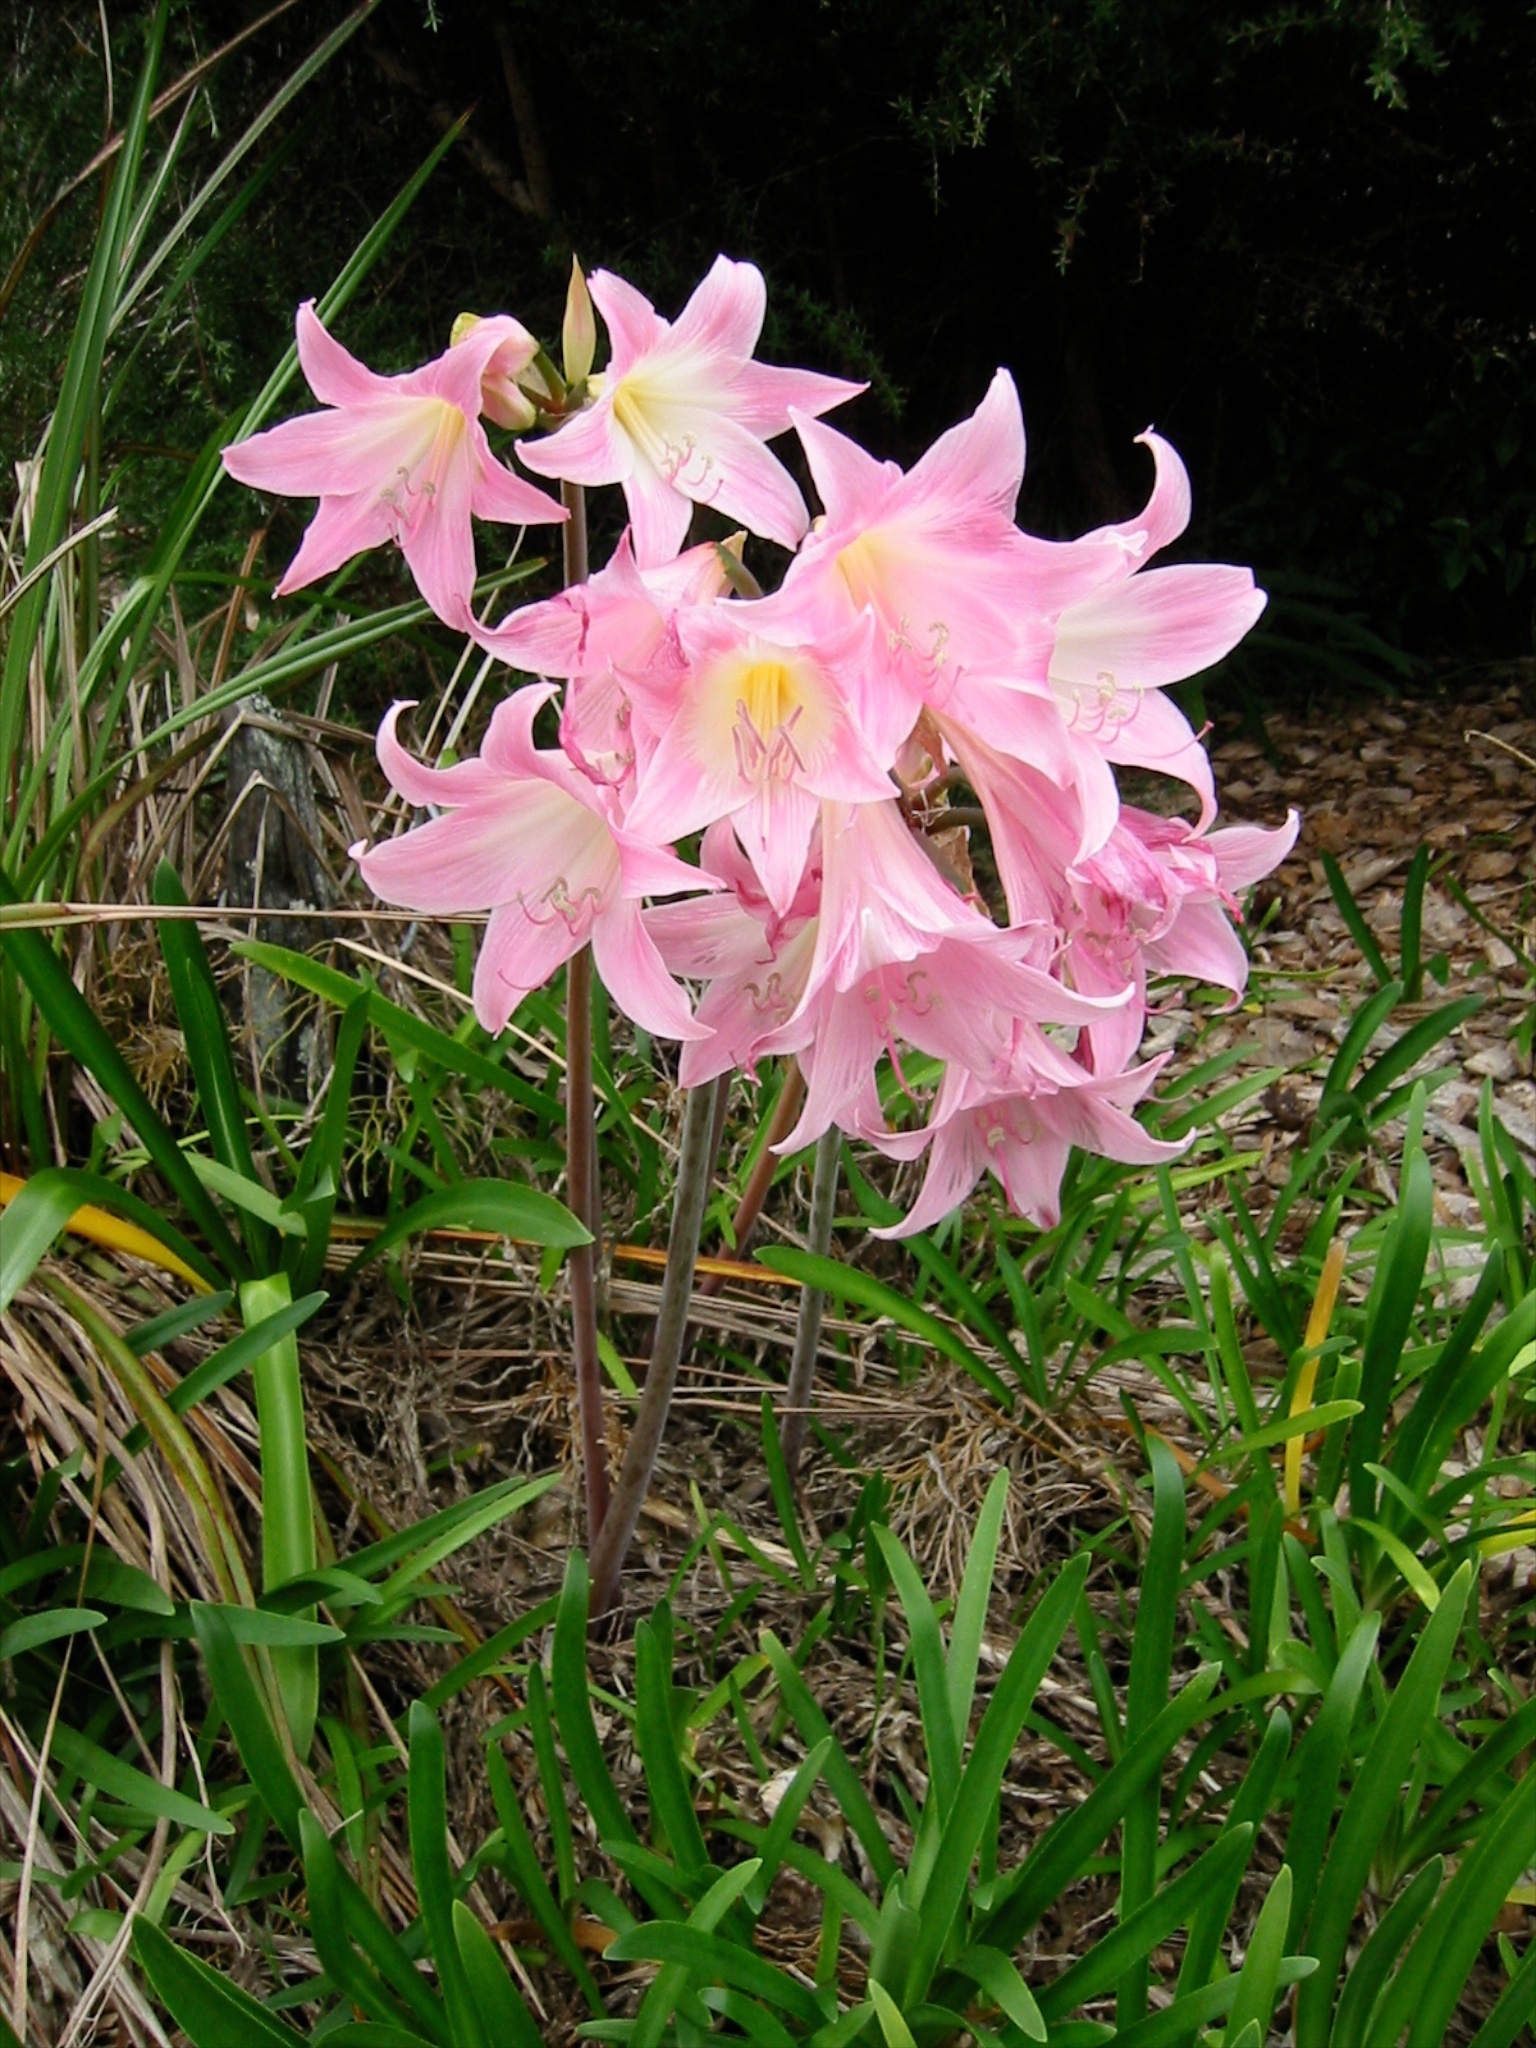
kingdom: Plantae
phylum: Tracheophyta
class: Liliopsida
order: Asparagales
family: Amaryllidaceae
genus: Amaryllis
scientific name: Amaryllis belladonna
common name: Jersey lily
